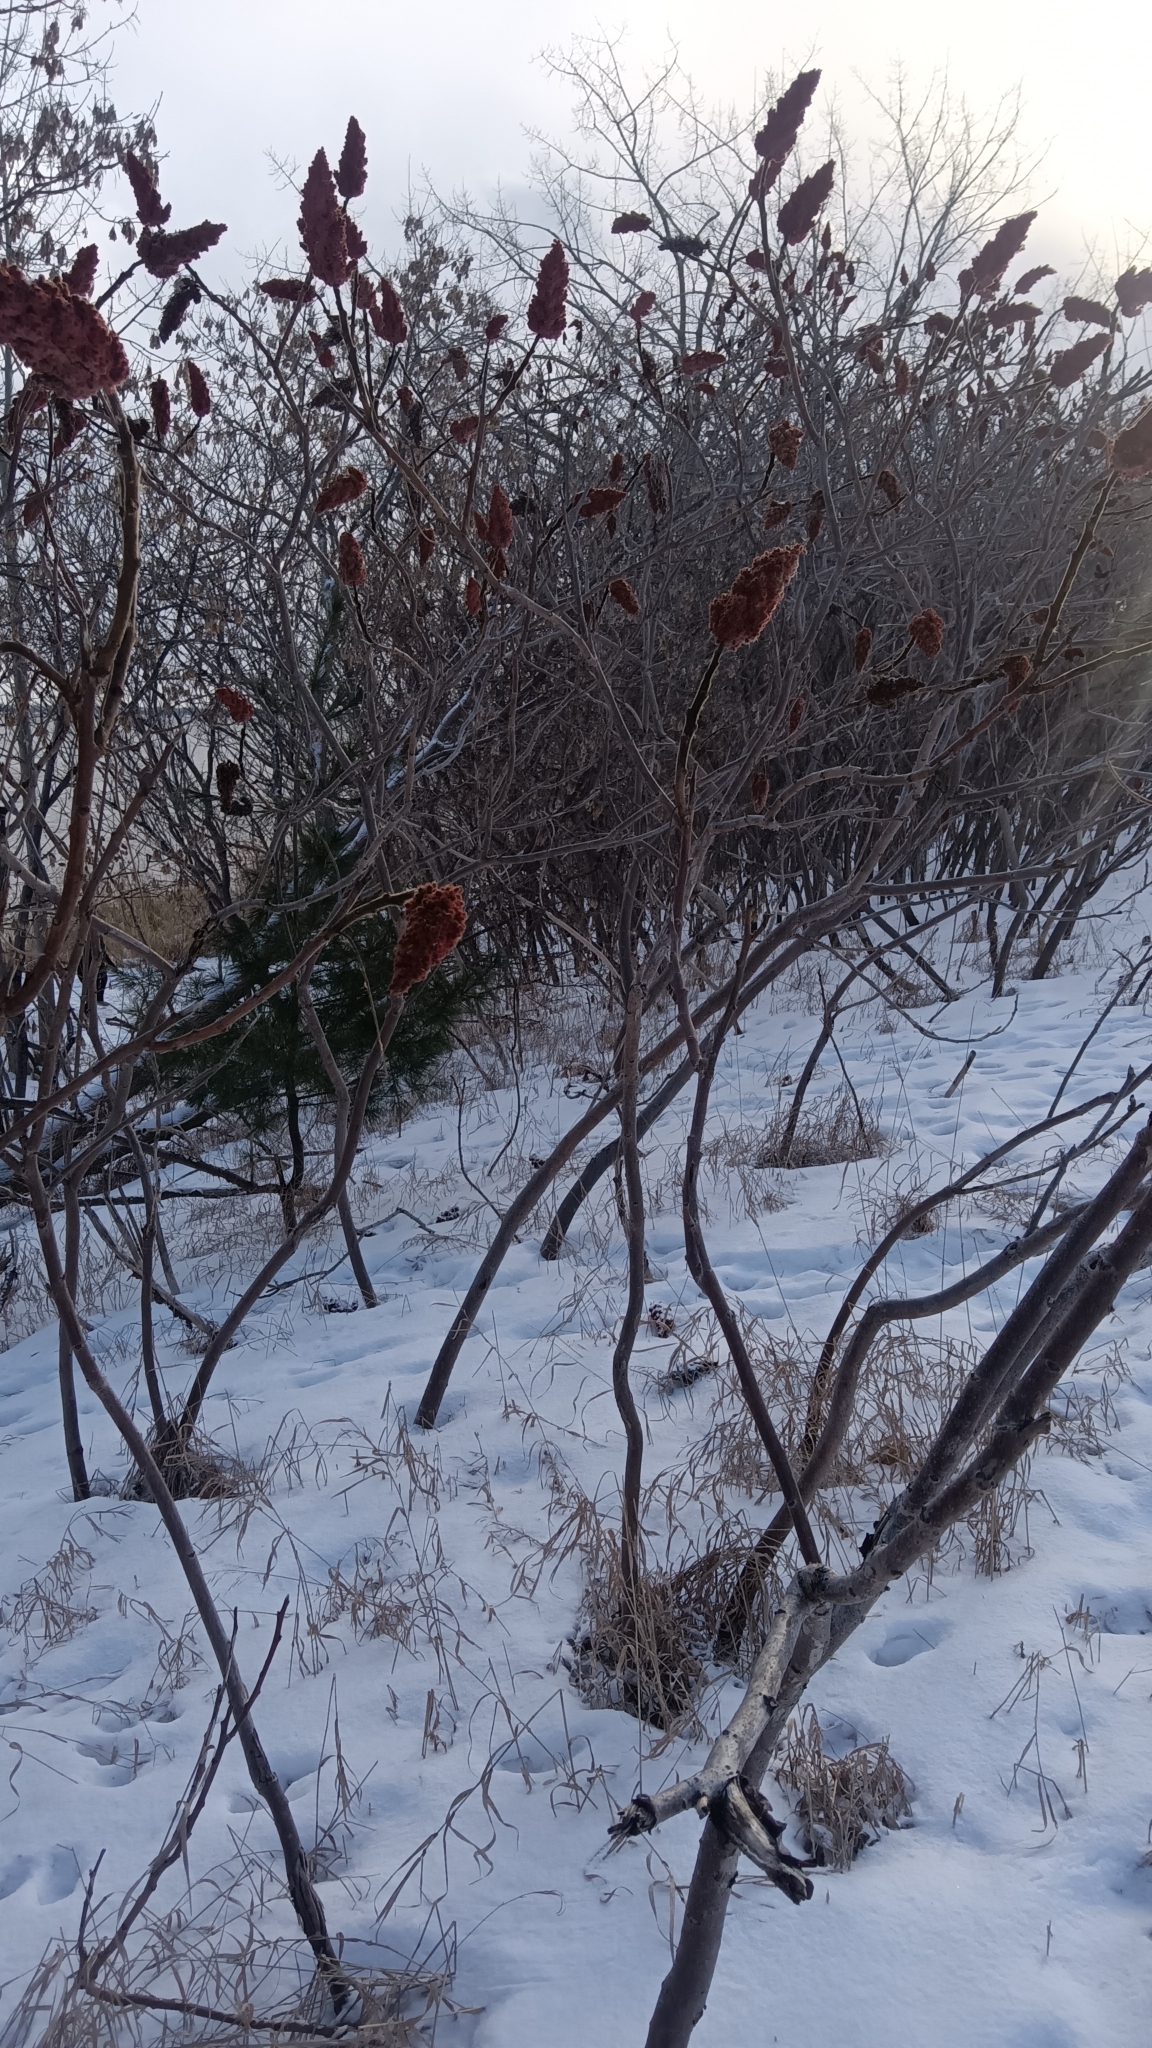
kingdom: Plantae
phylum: Tracheophyta
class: Magnoliopsida
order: Sapindales
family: Anacardiaceae
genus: Rhus
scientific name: Rhus typhina
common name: Staghorn sumac
